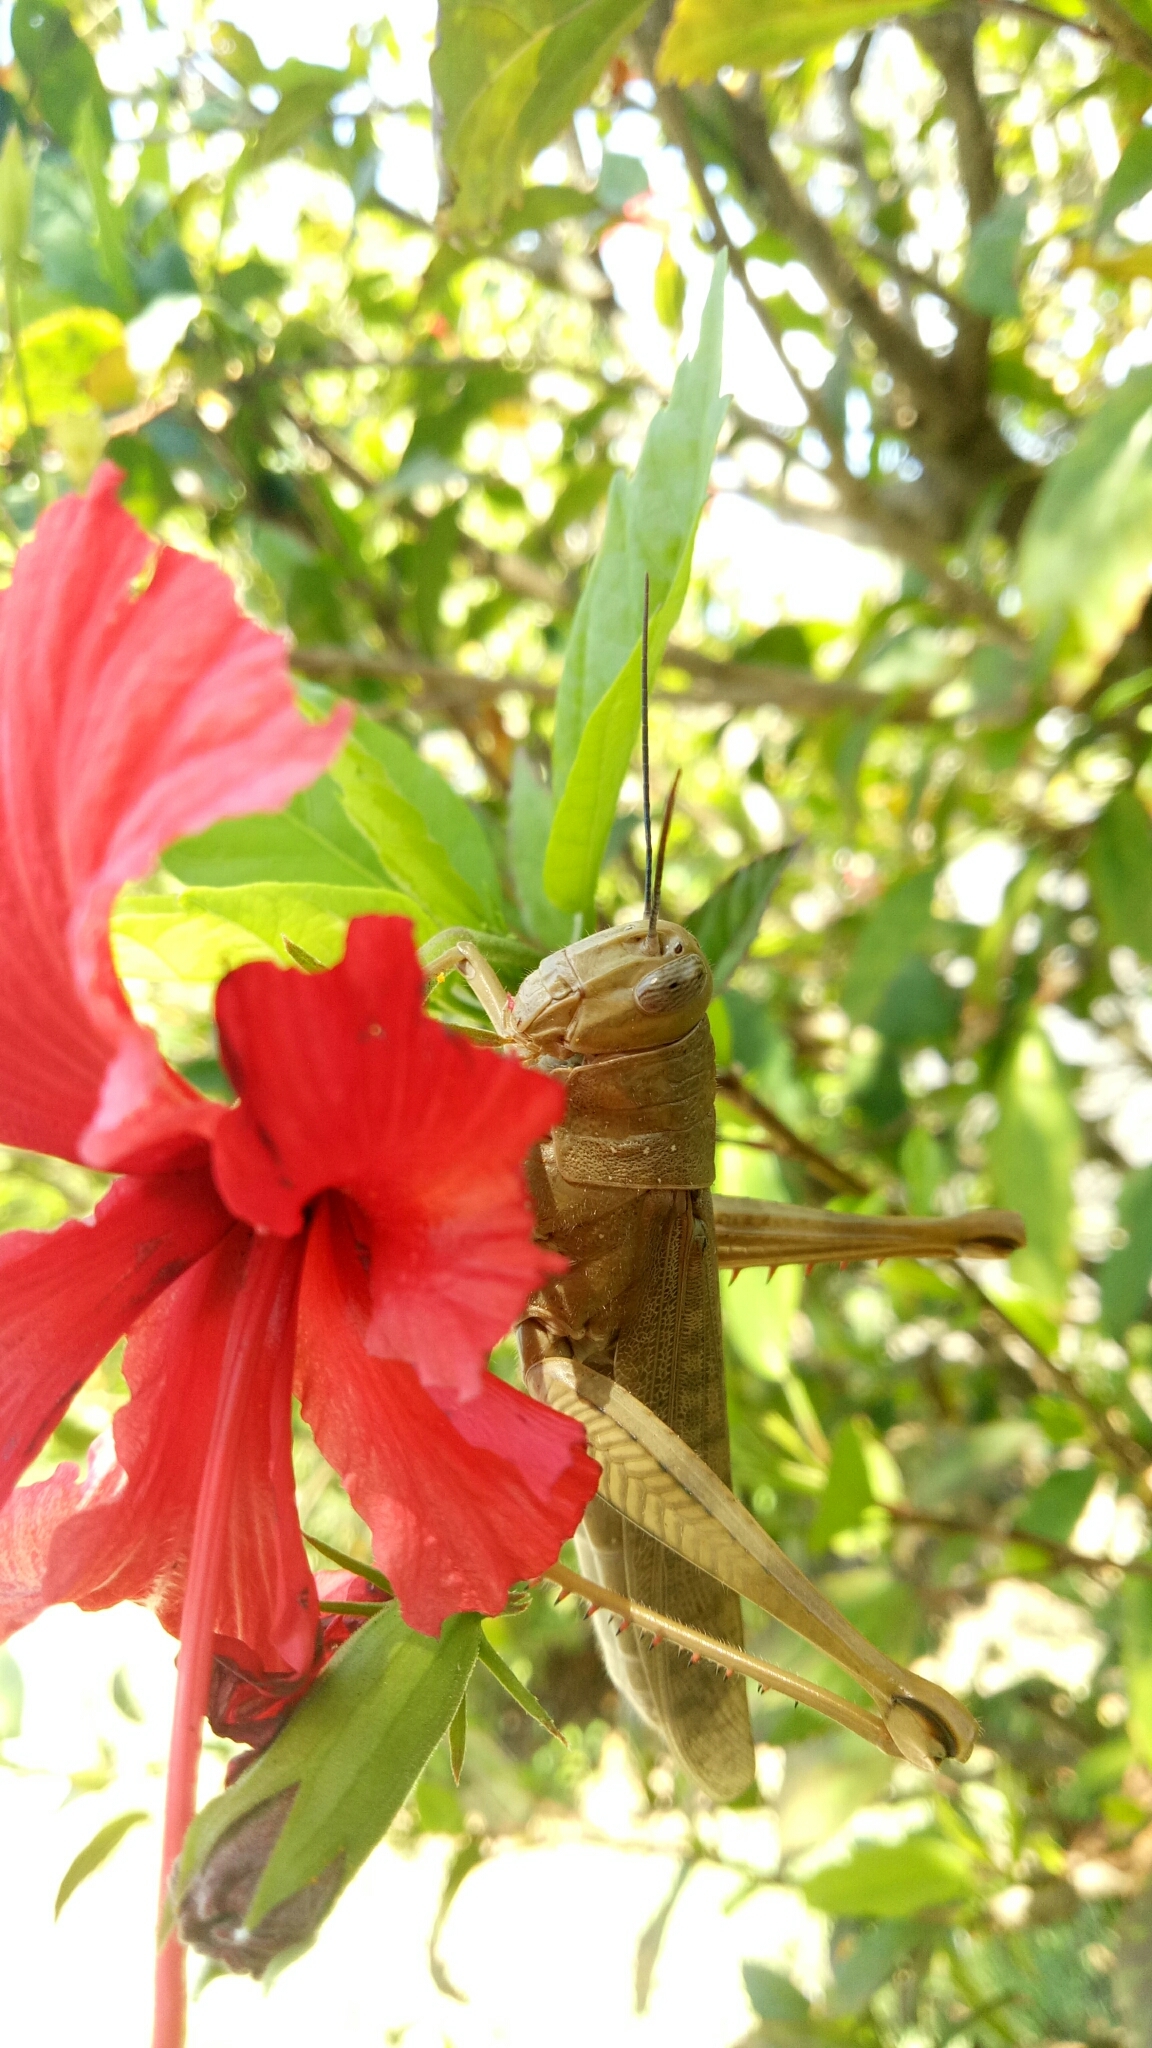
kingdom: Animalia
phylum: Arthropoda
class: Insecta
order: Orthoptera
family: Acrididae
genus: Valanga
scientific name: Valanga irregularis
